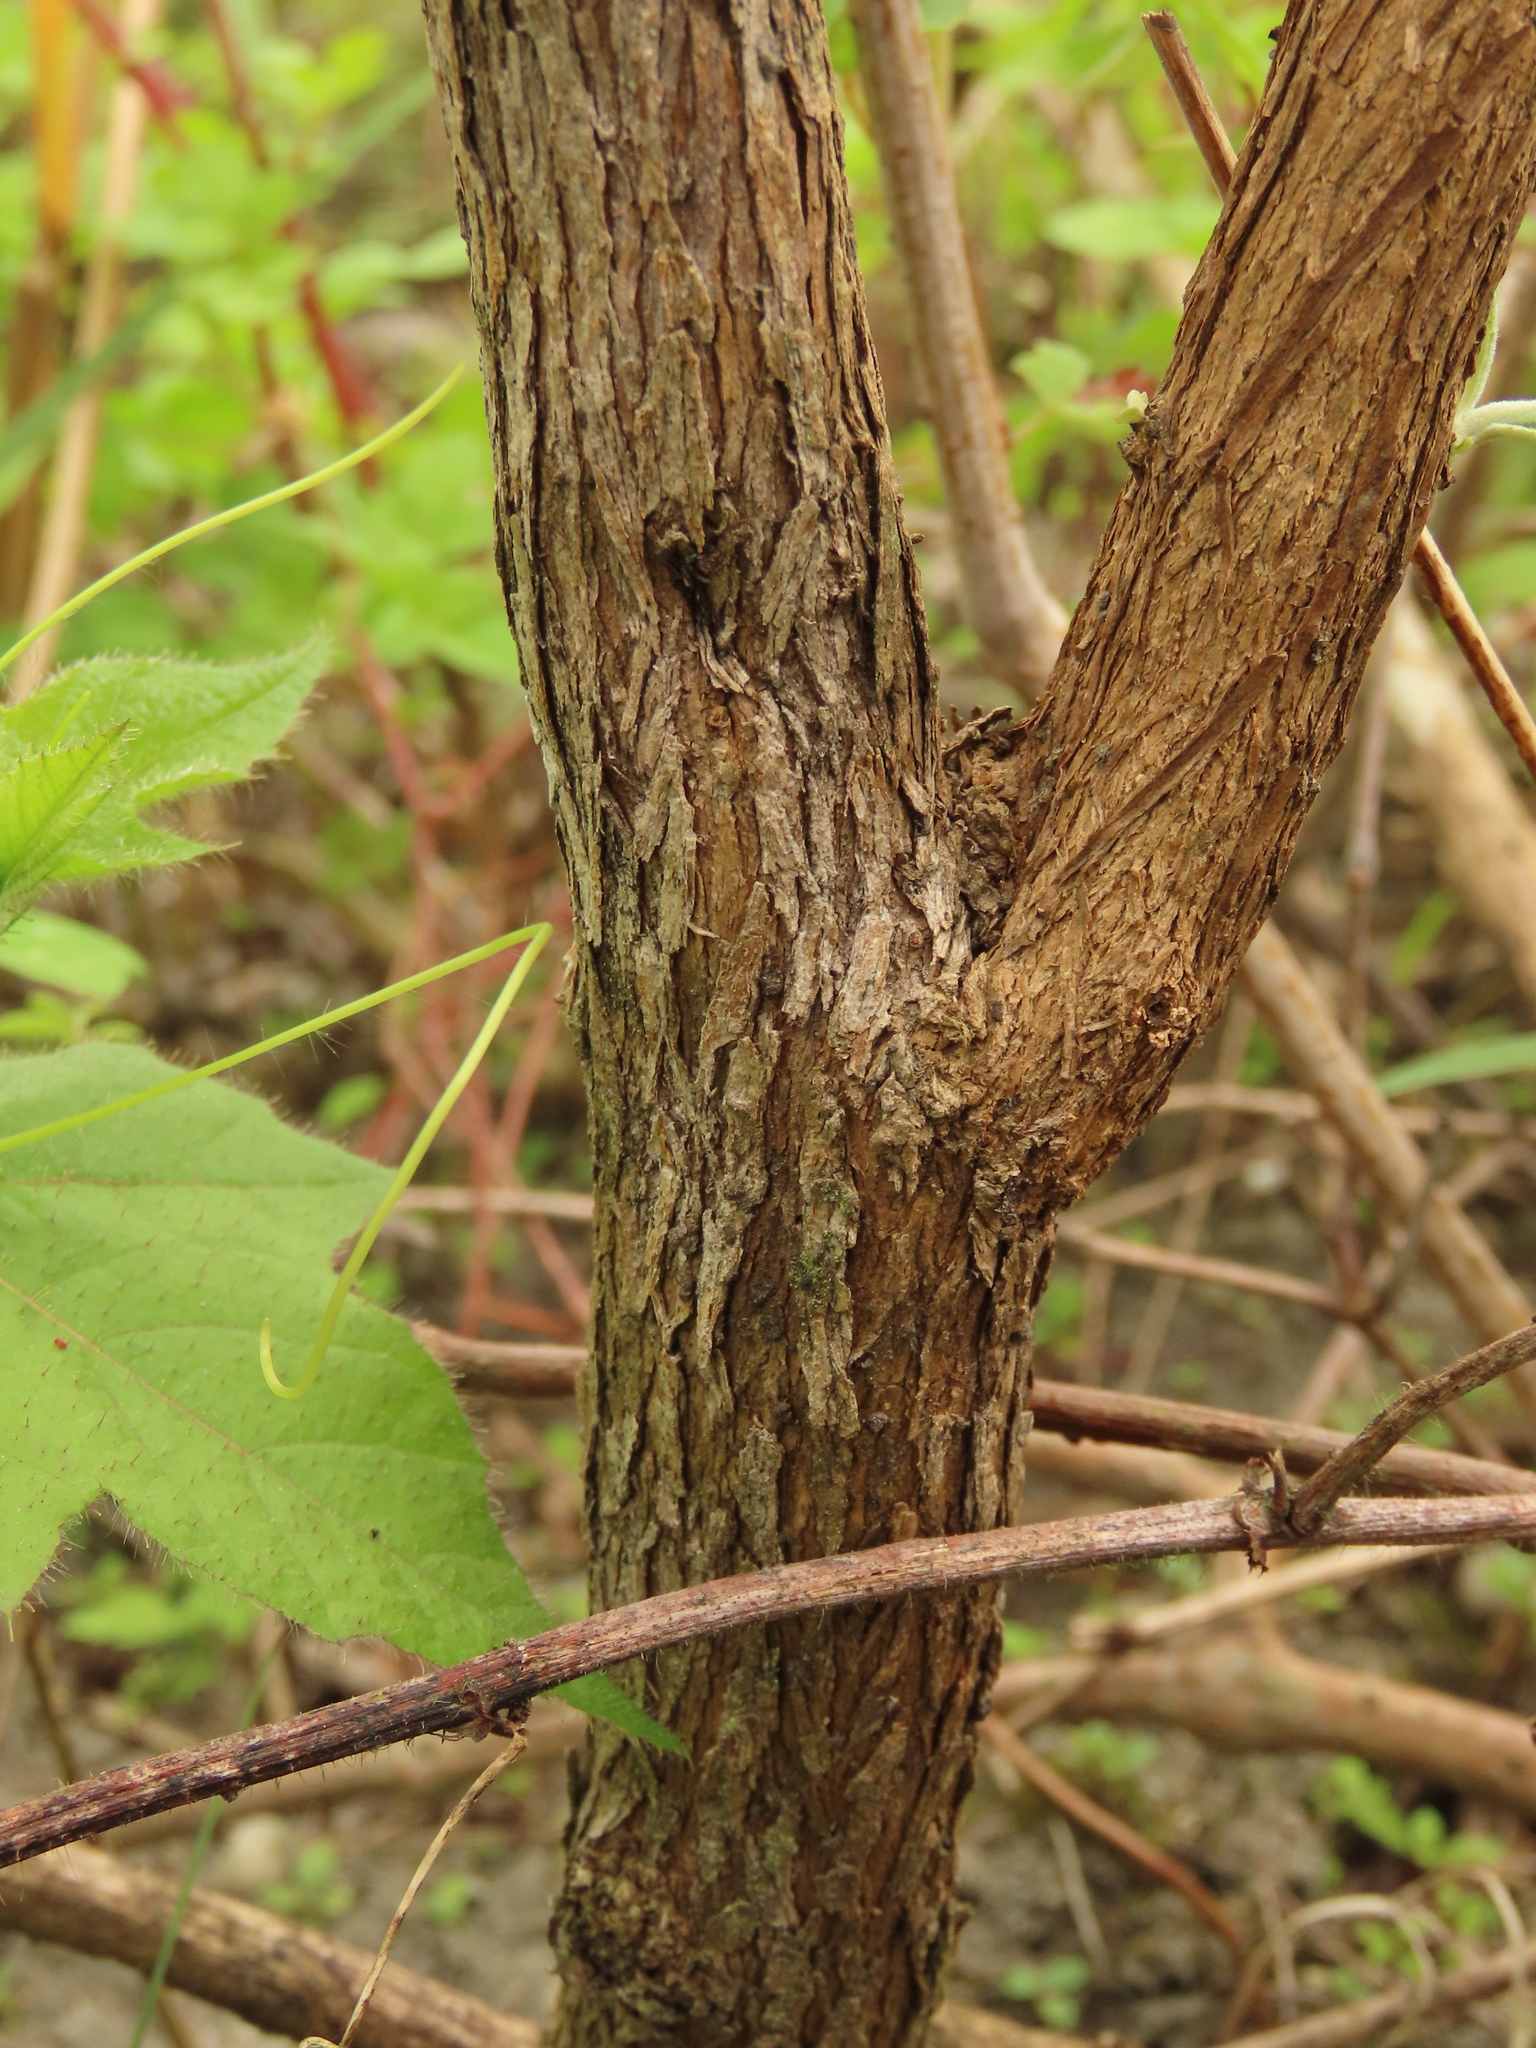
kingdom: Plantae
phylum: Tracheophyta
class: Magnoliopsida
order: Lamiales
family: Scrophulariaceae
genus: Buddleja
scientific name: Buddleja asiatica
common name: Dog tail
